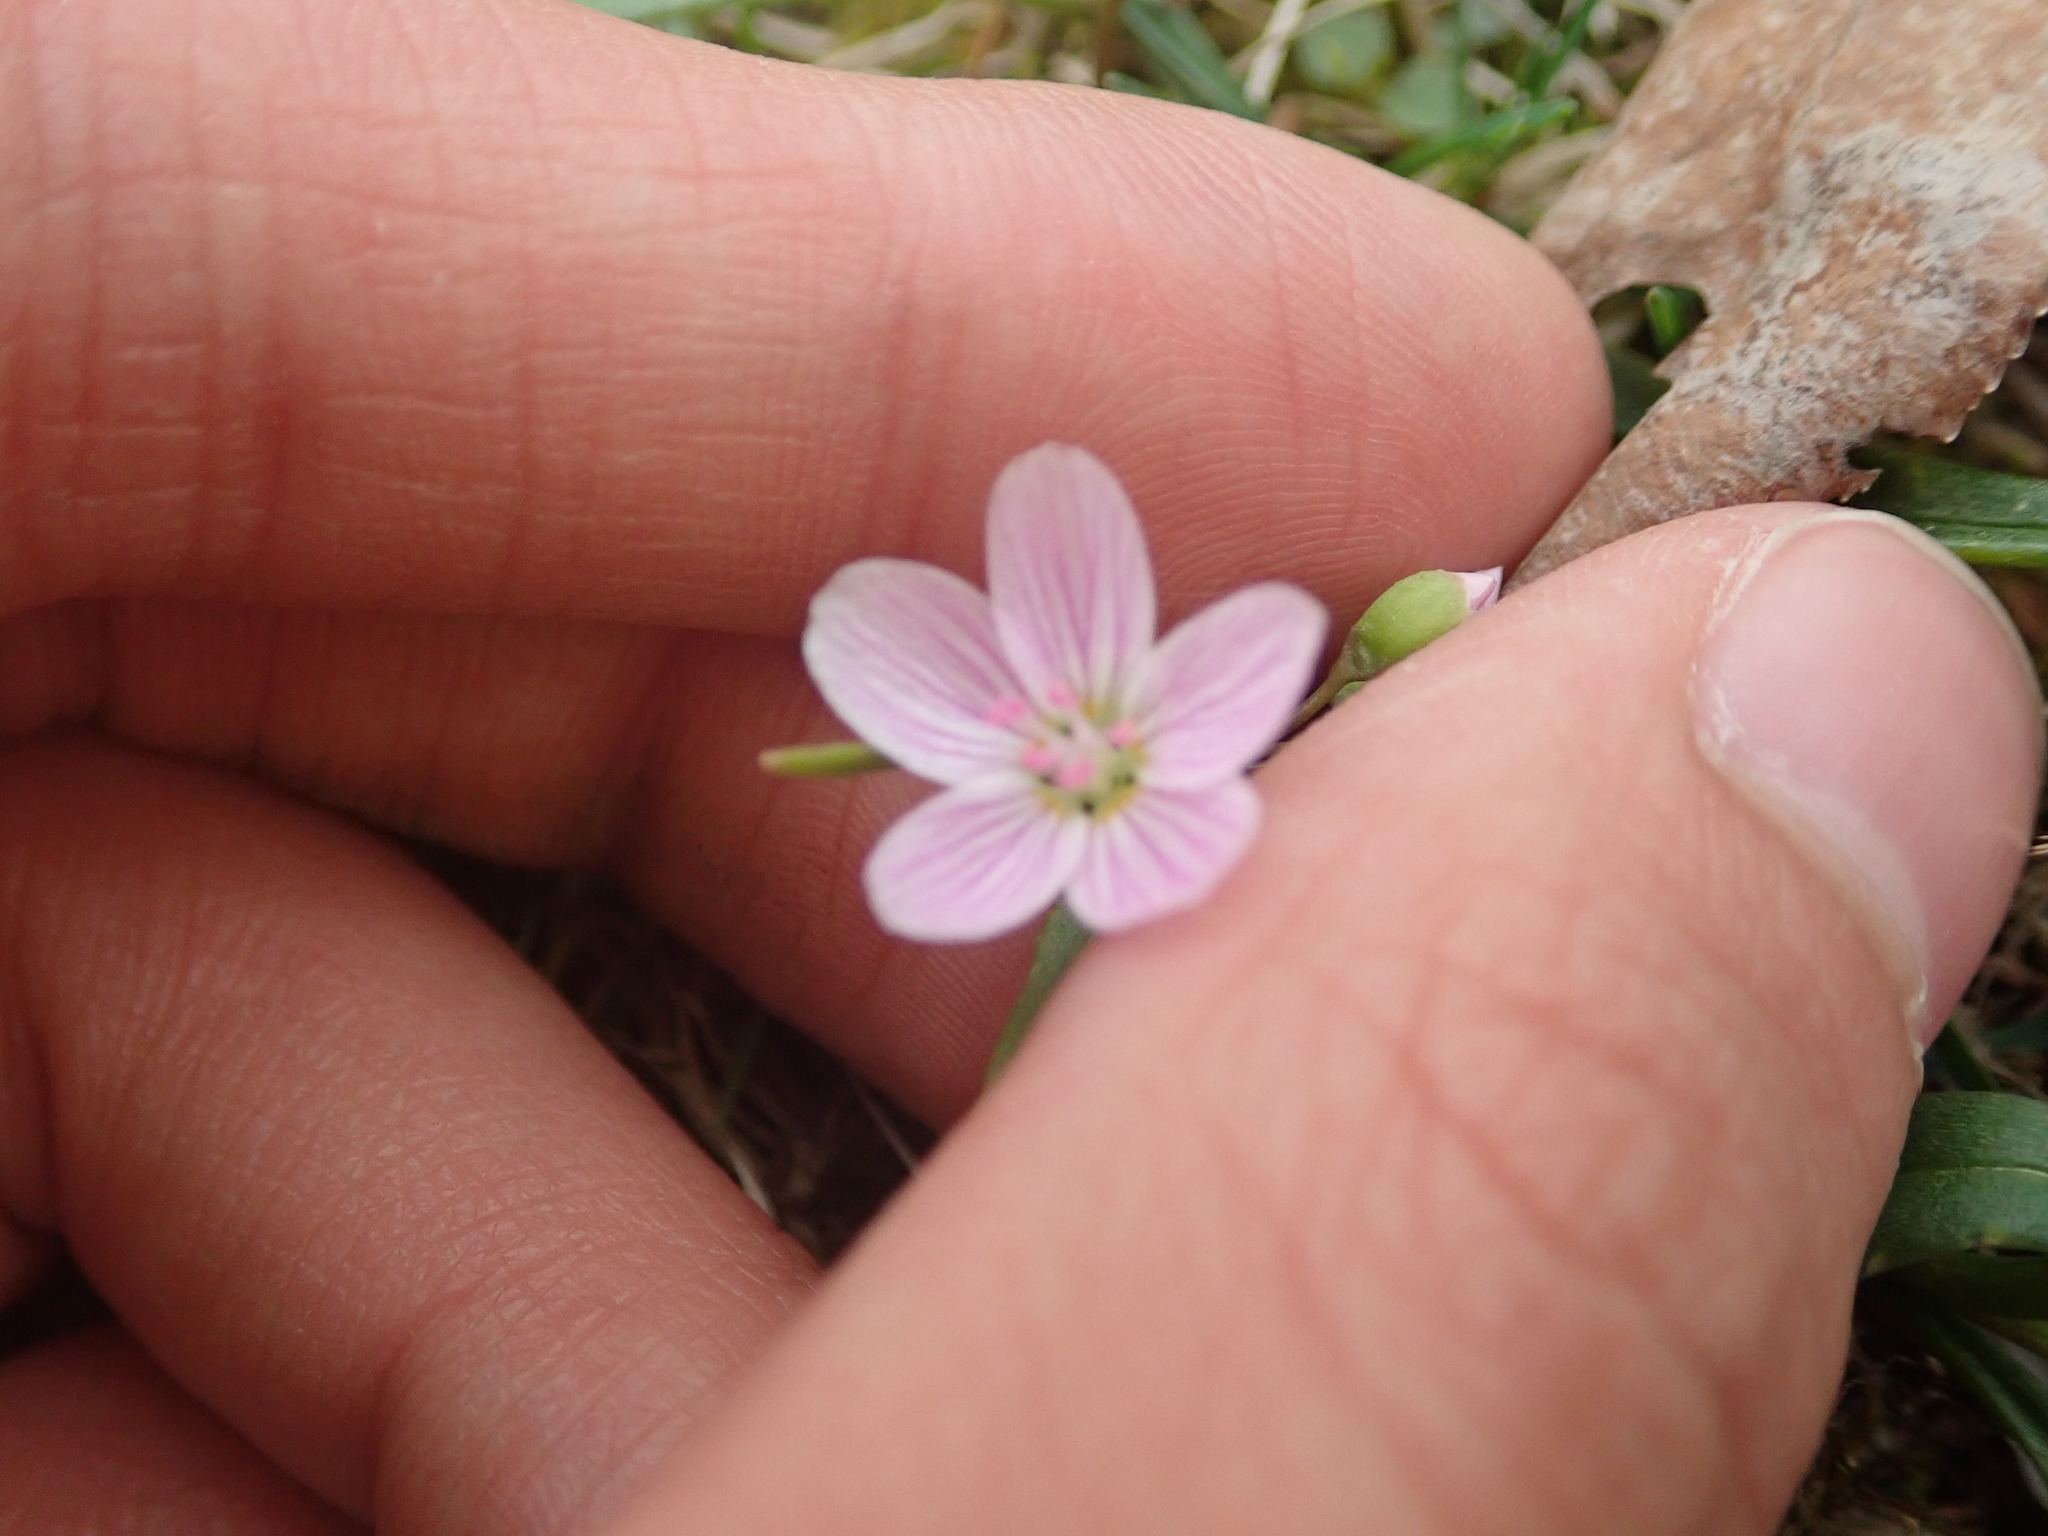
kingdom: Plantae
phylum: Tracheophyta
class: Magnoliopsida
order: Caryophyllales
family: Montiaceae
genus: Claytonia
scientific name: Claytonia virginica
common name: Virginia springbeauty
